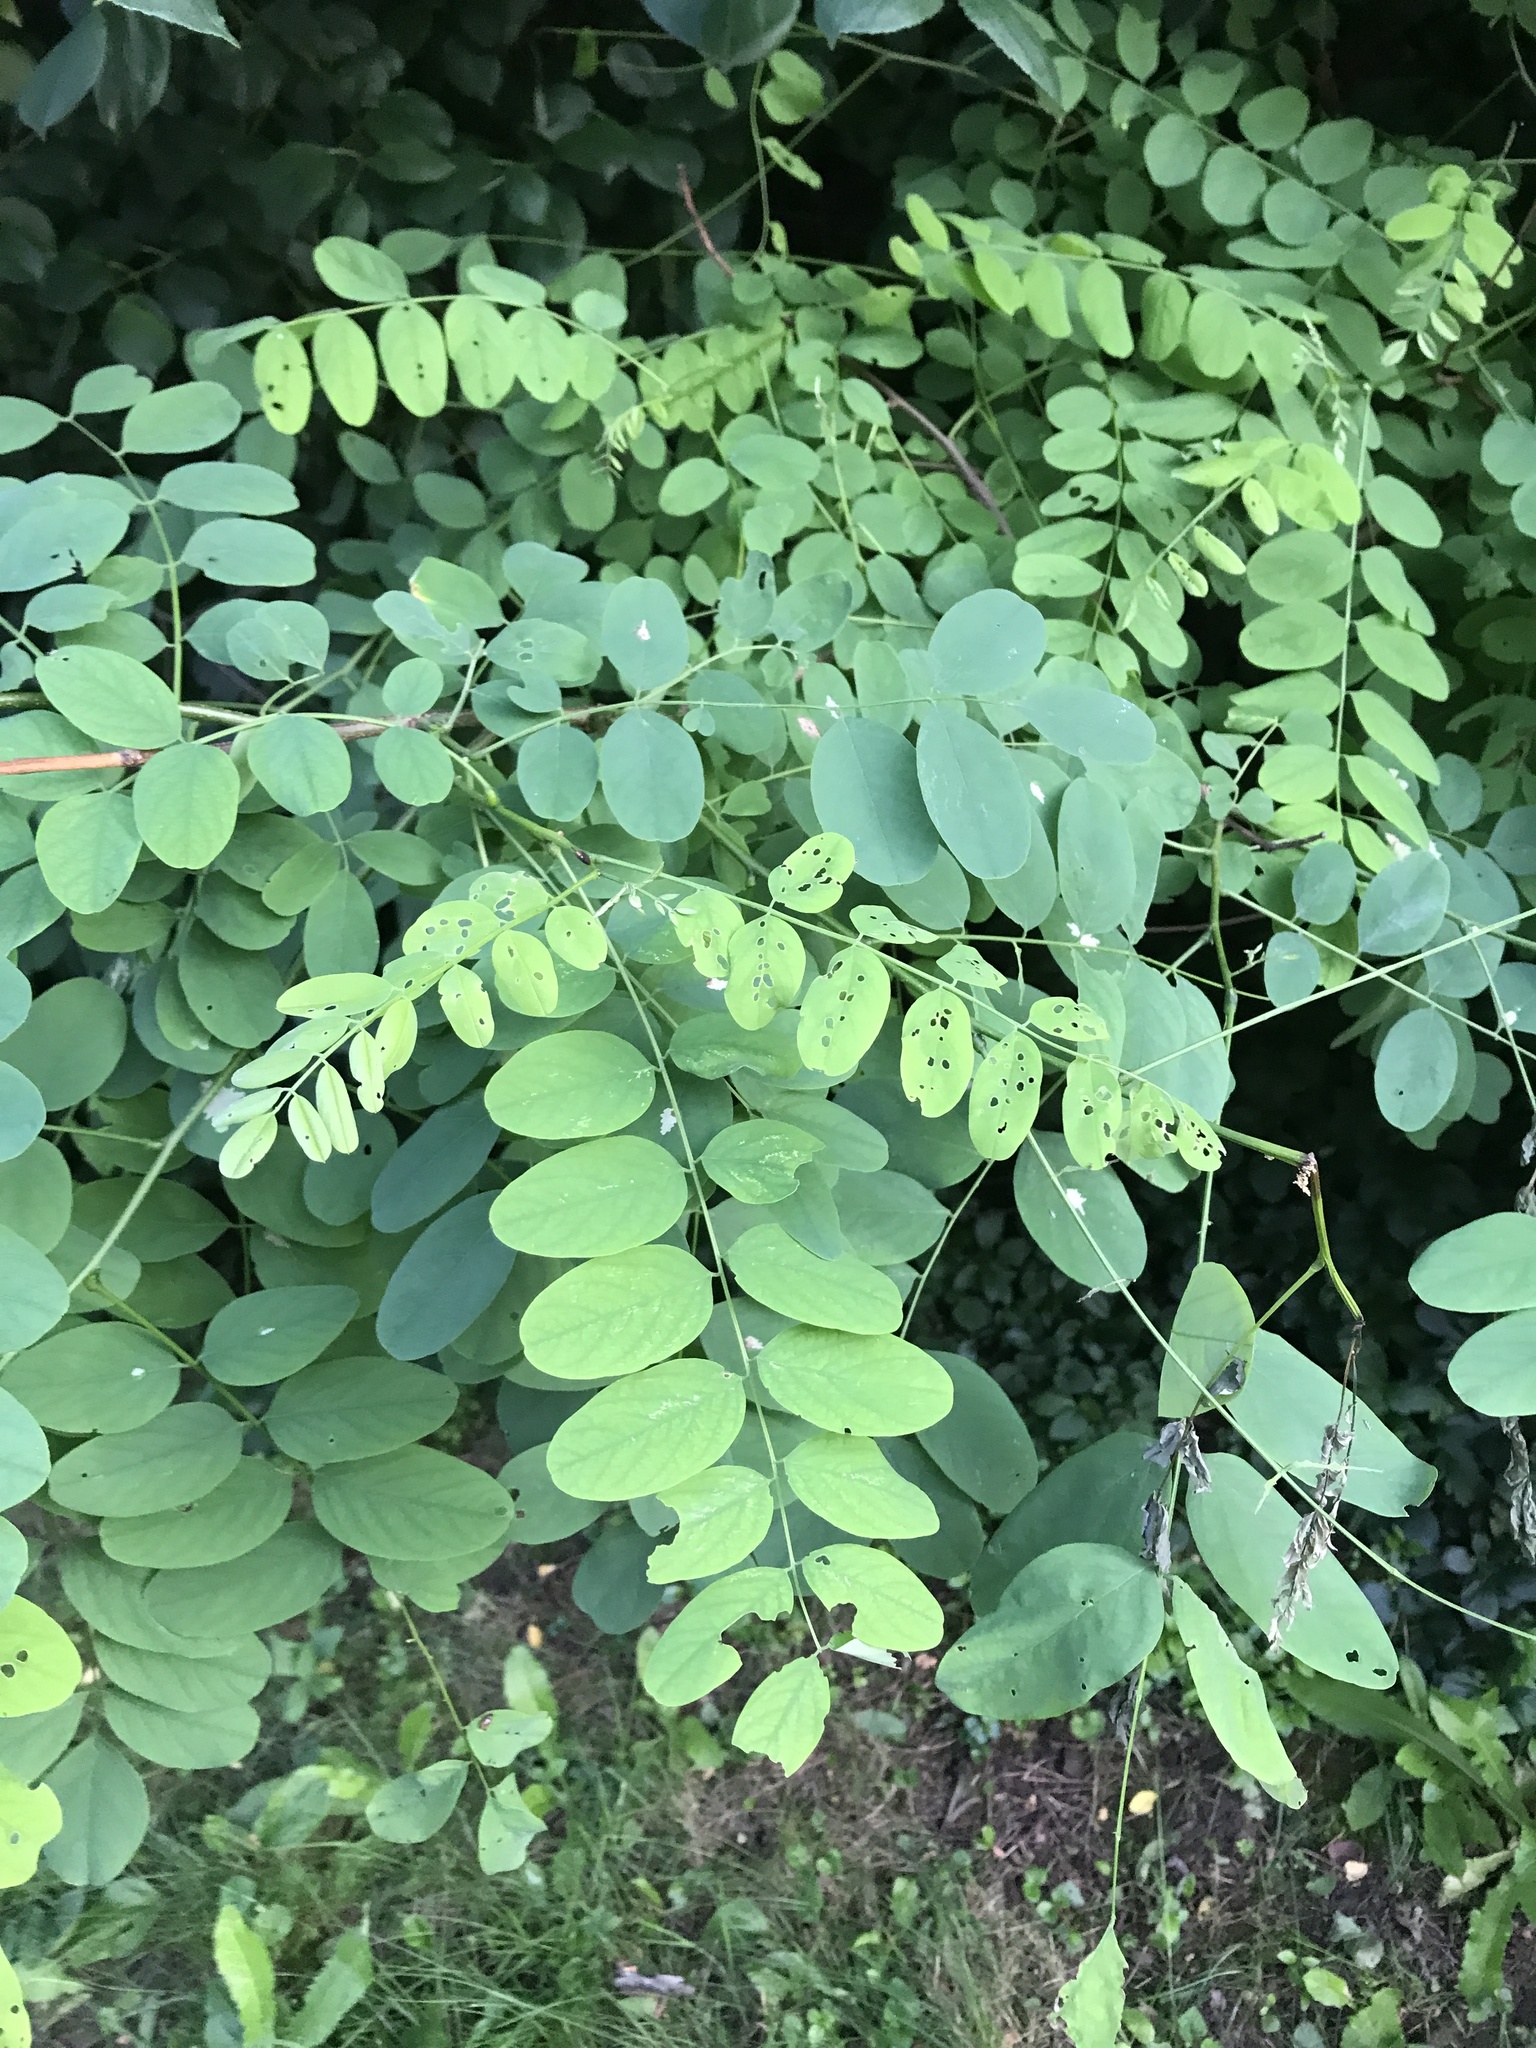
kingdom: Plantae
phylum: Tracheophyta
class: Magnoliopsida
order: Fabales
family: Fabaceae
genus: Robinia
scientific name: Robinia pseudoacacia
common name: Black locust
